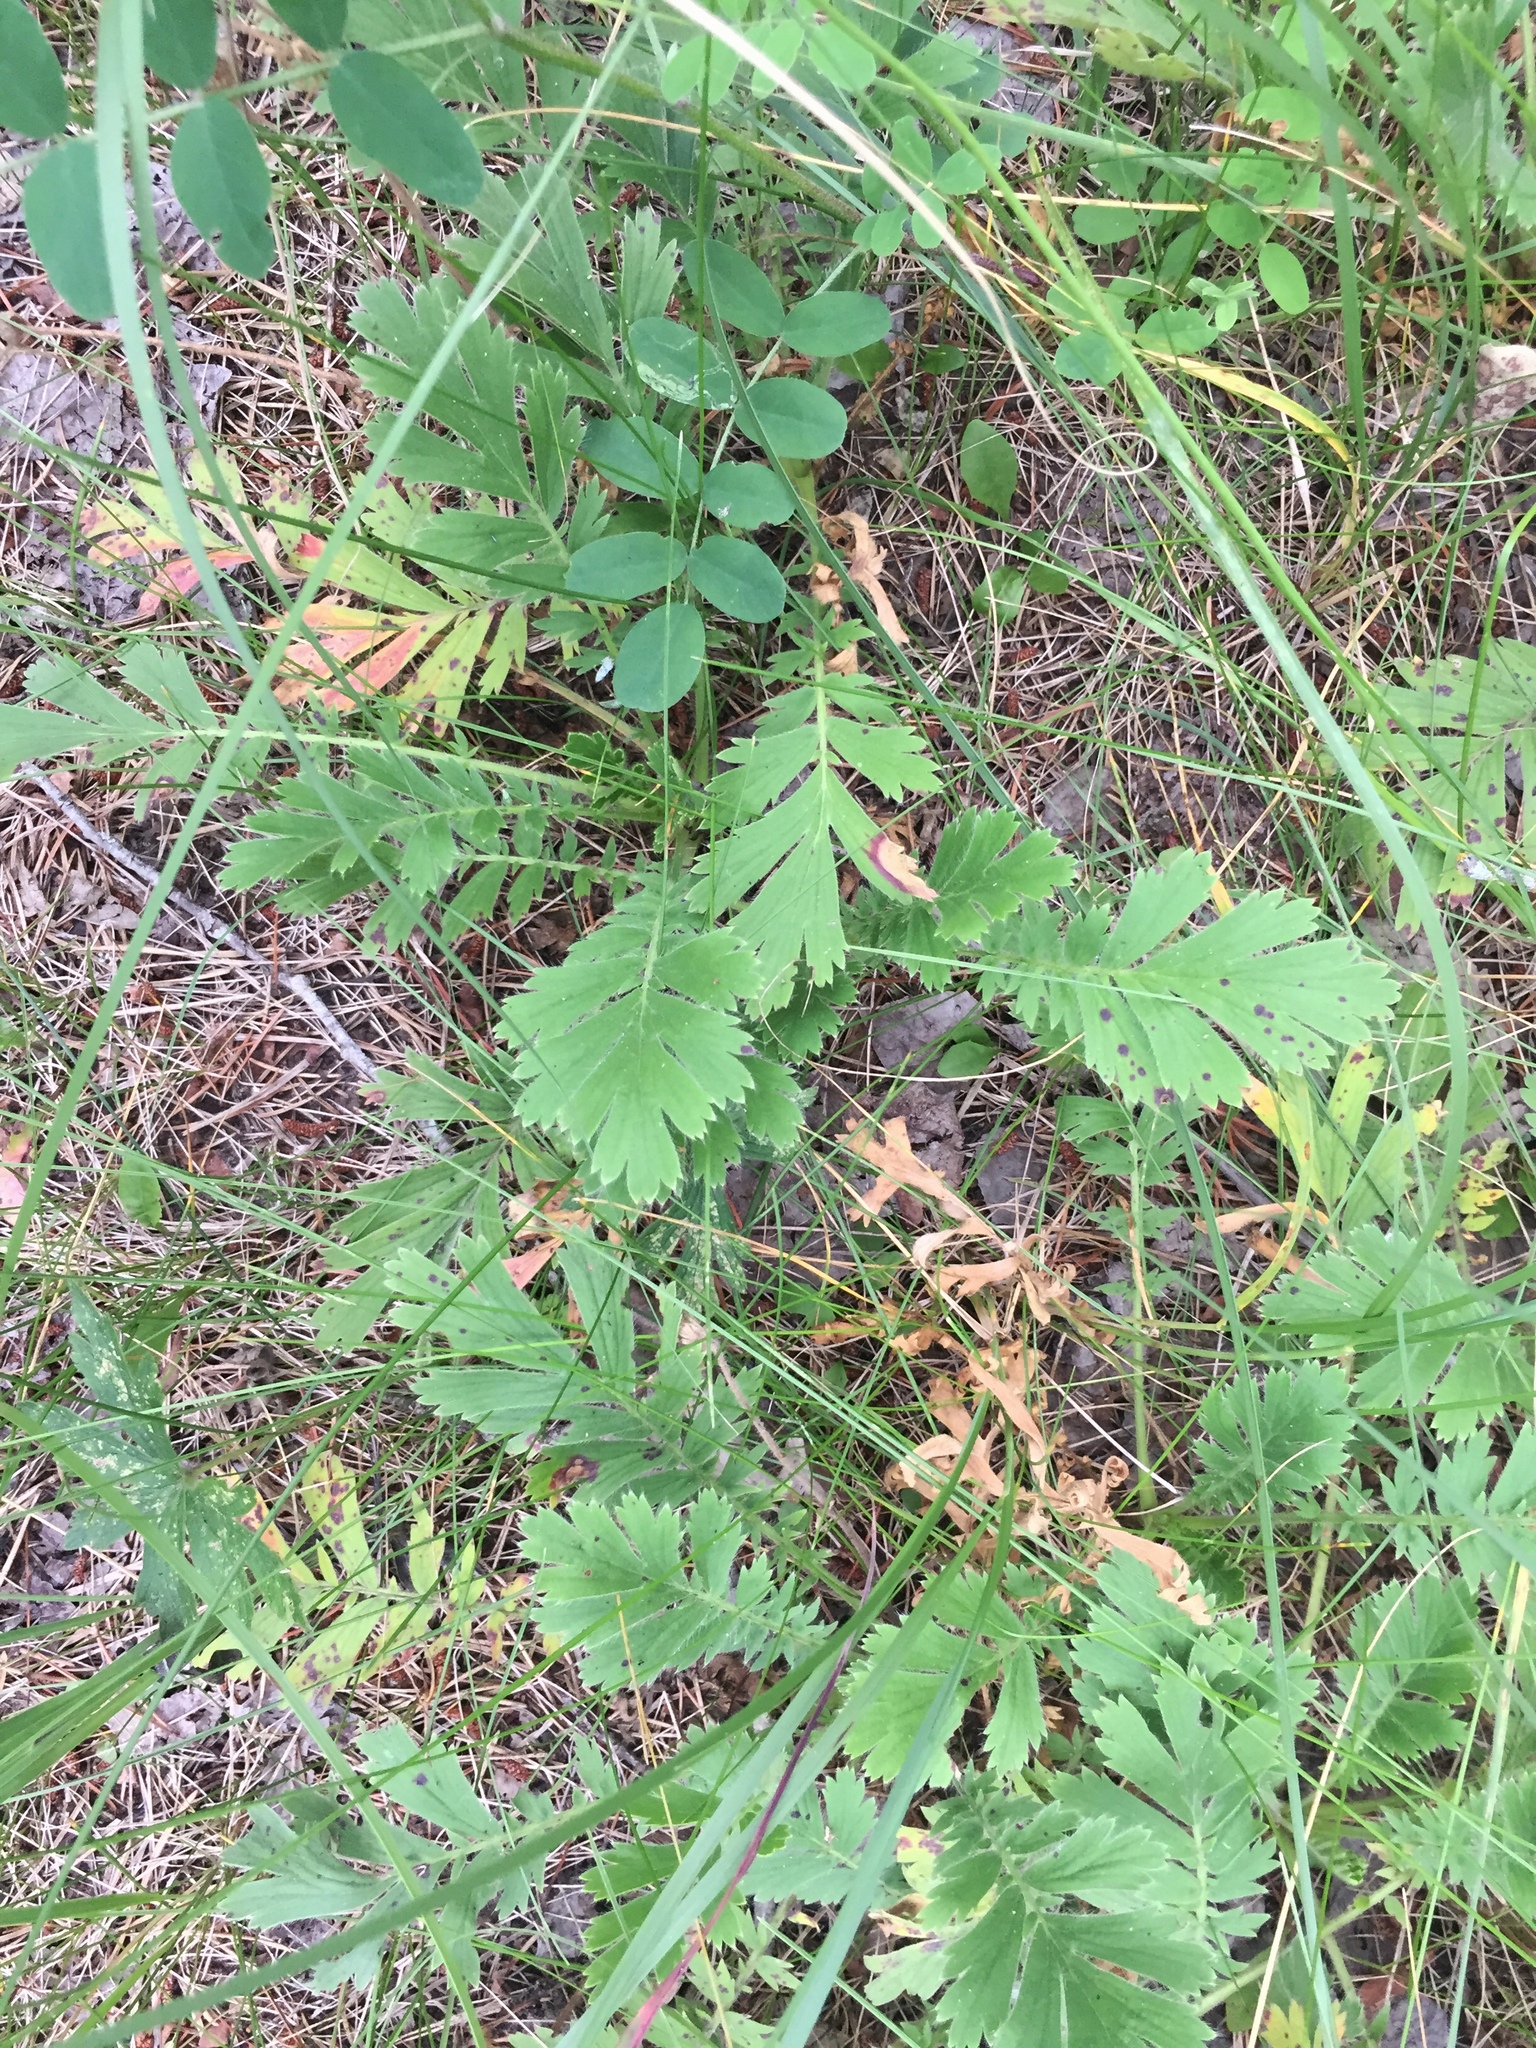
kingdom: Plantae
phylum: Tracheophyta
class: Magnoliopsida
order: Rosales
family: Rosaceae
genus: Geum
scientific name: Geum triflorum
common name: Old man's whiskers
